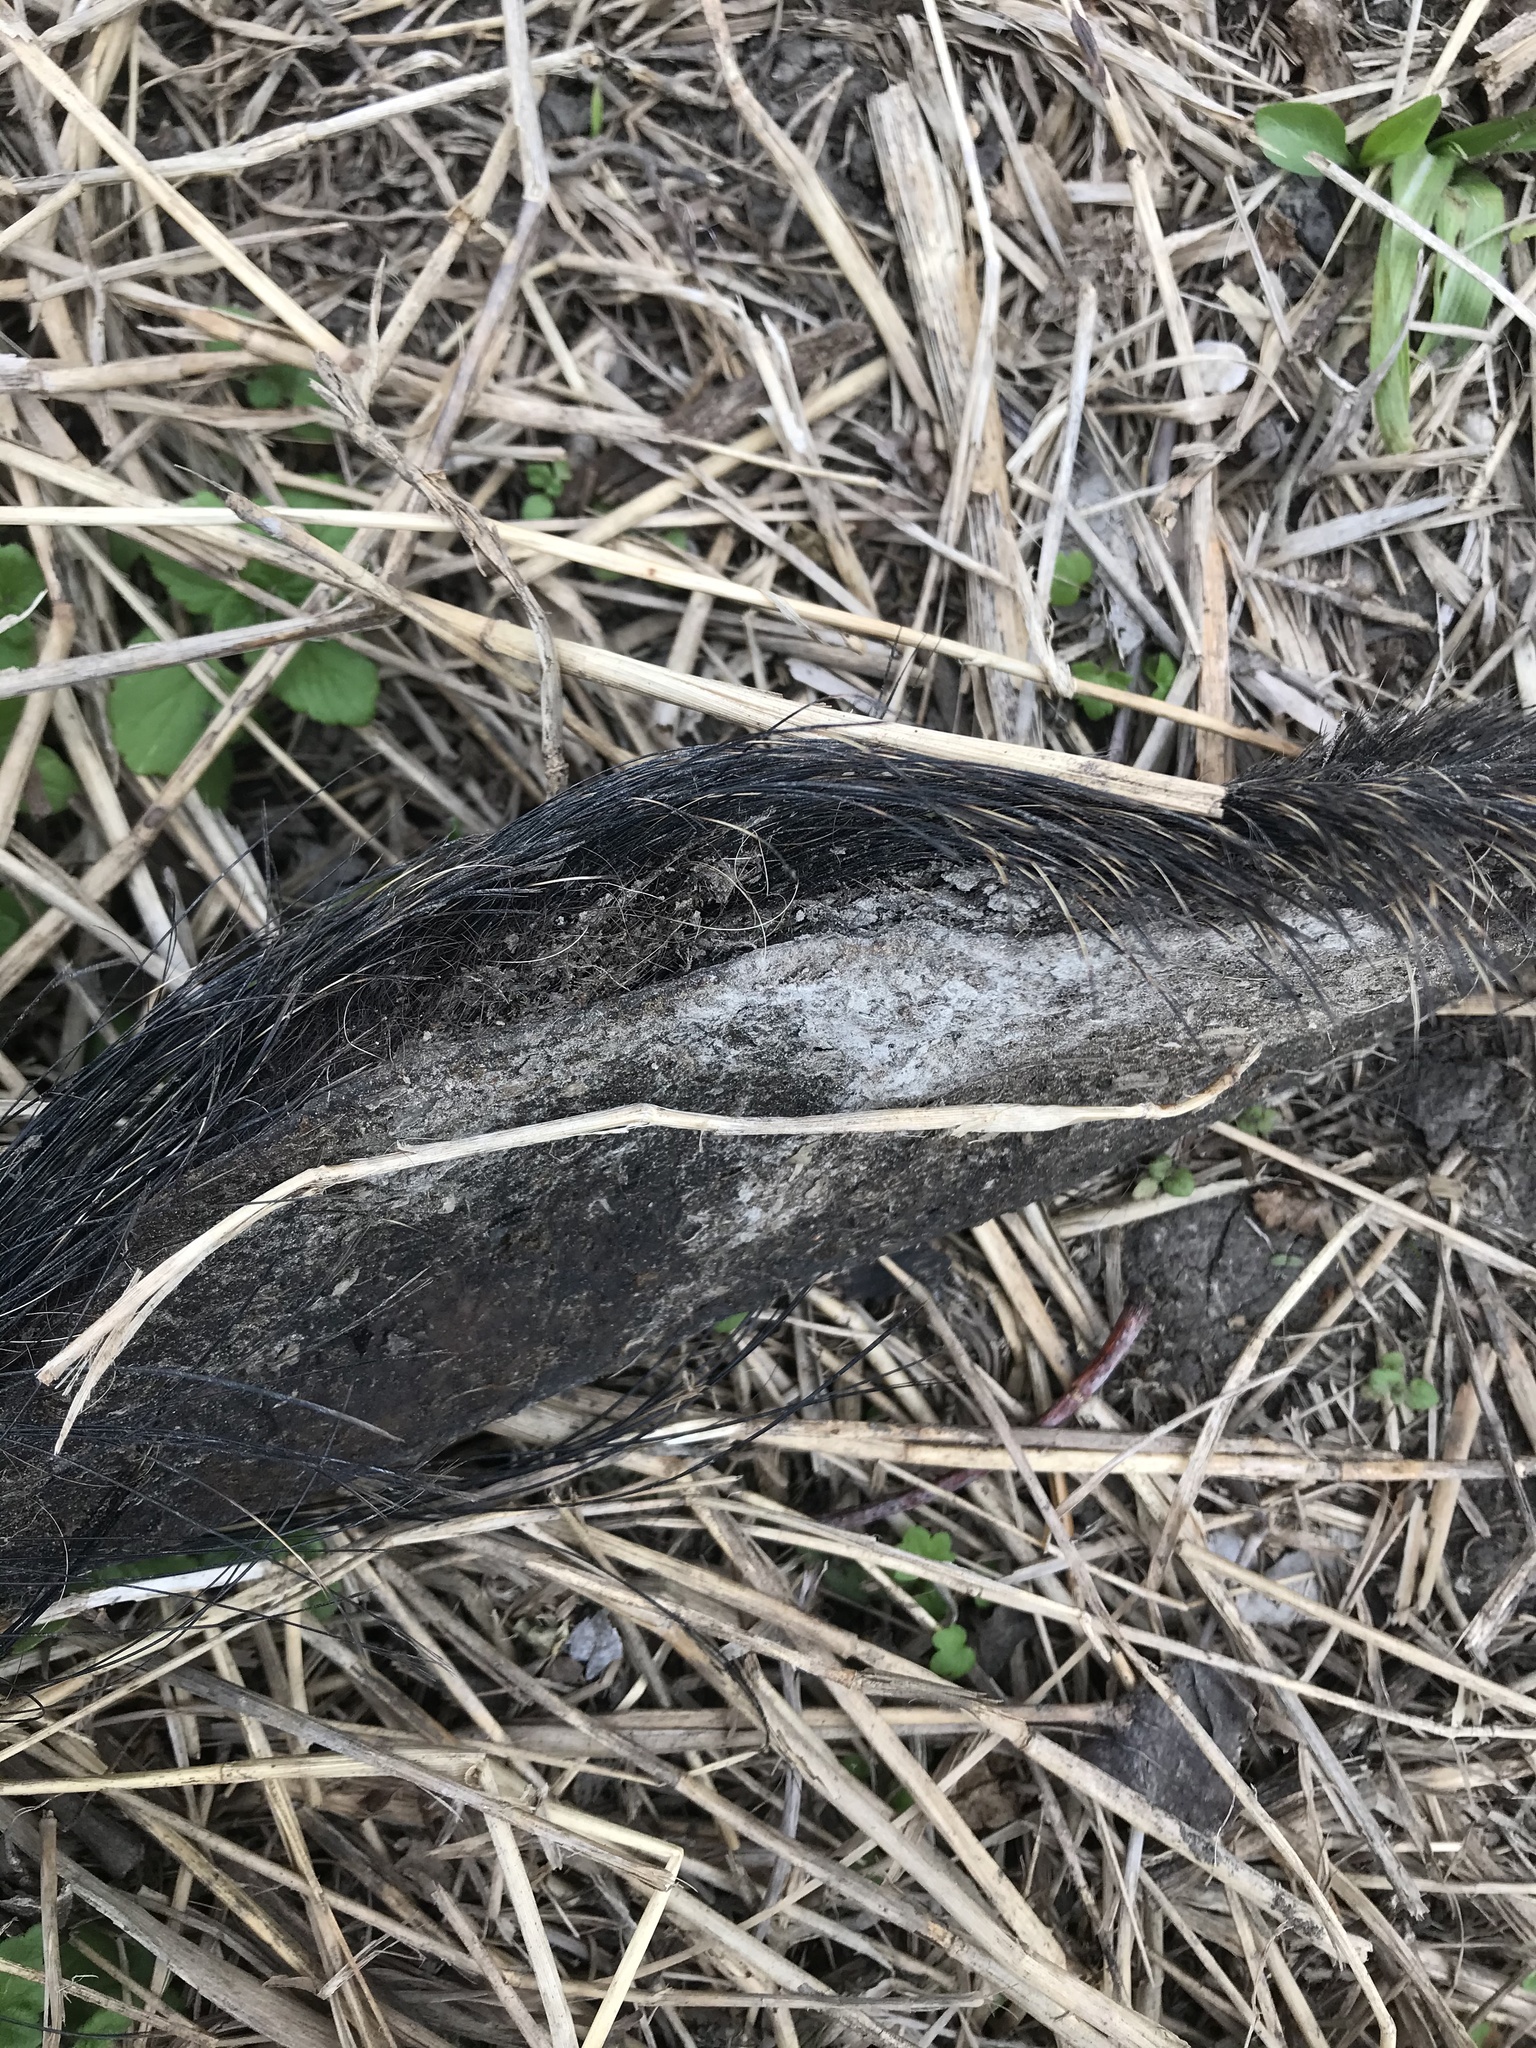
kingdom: Animalia
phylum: Chordata
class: Mammalia
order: Artiodactyla
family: Suidae
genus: Sus
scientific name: Sus scrofa
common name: Wild boar
